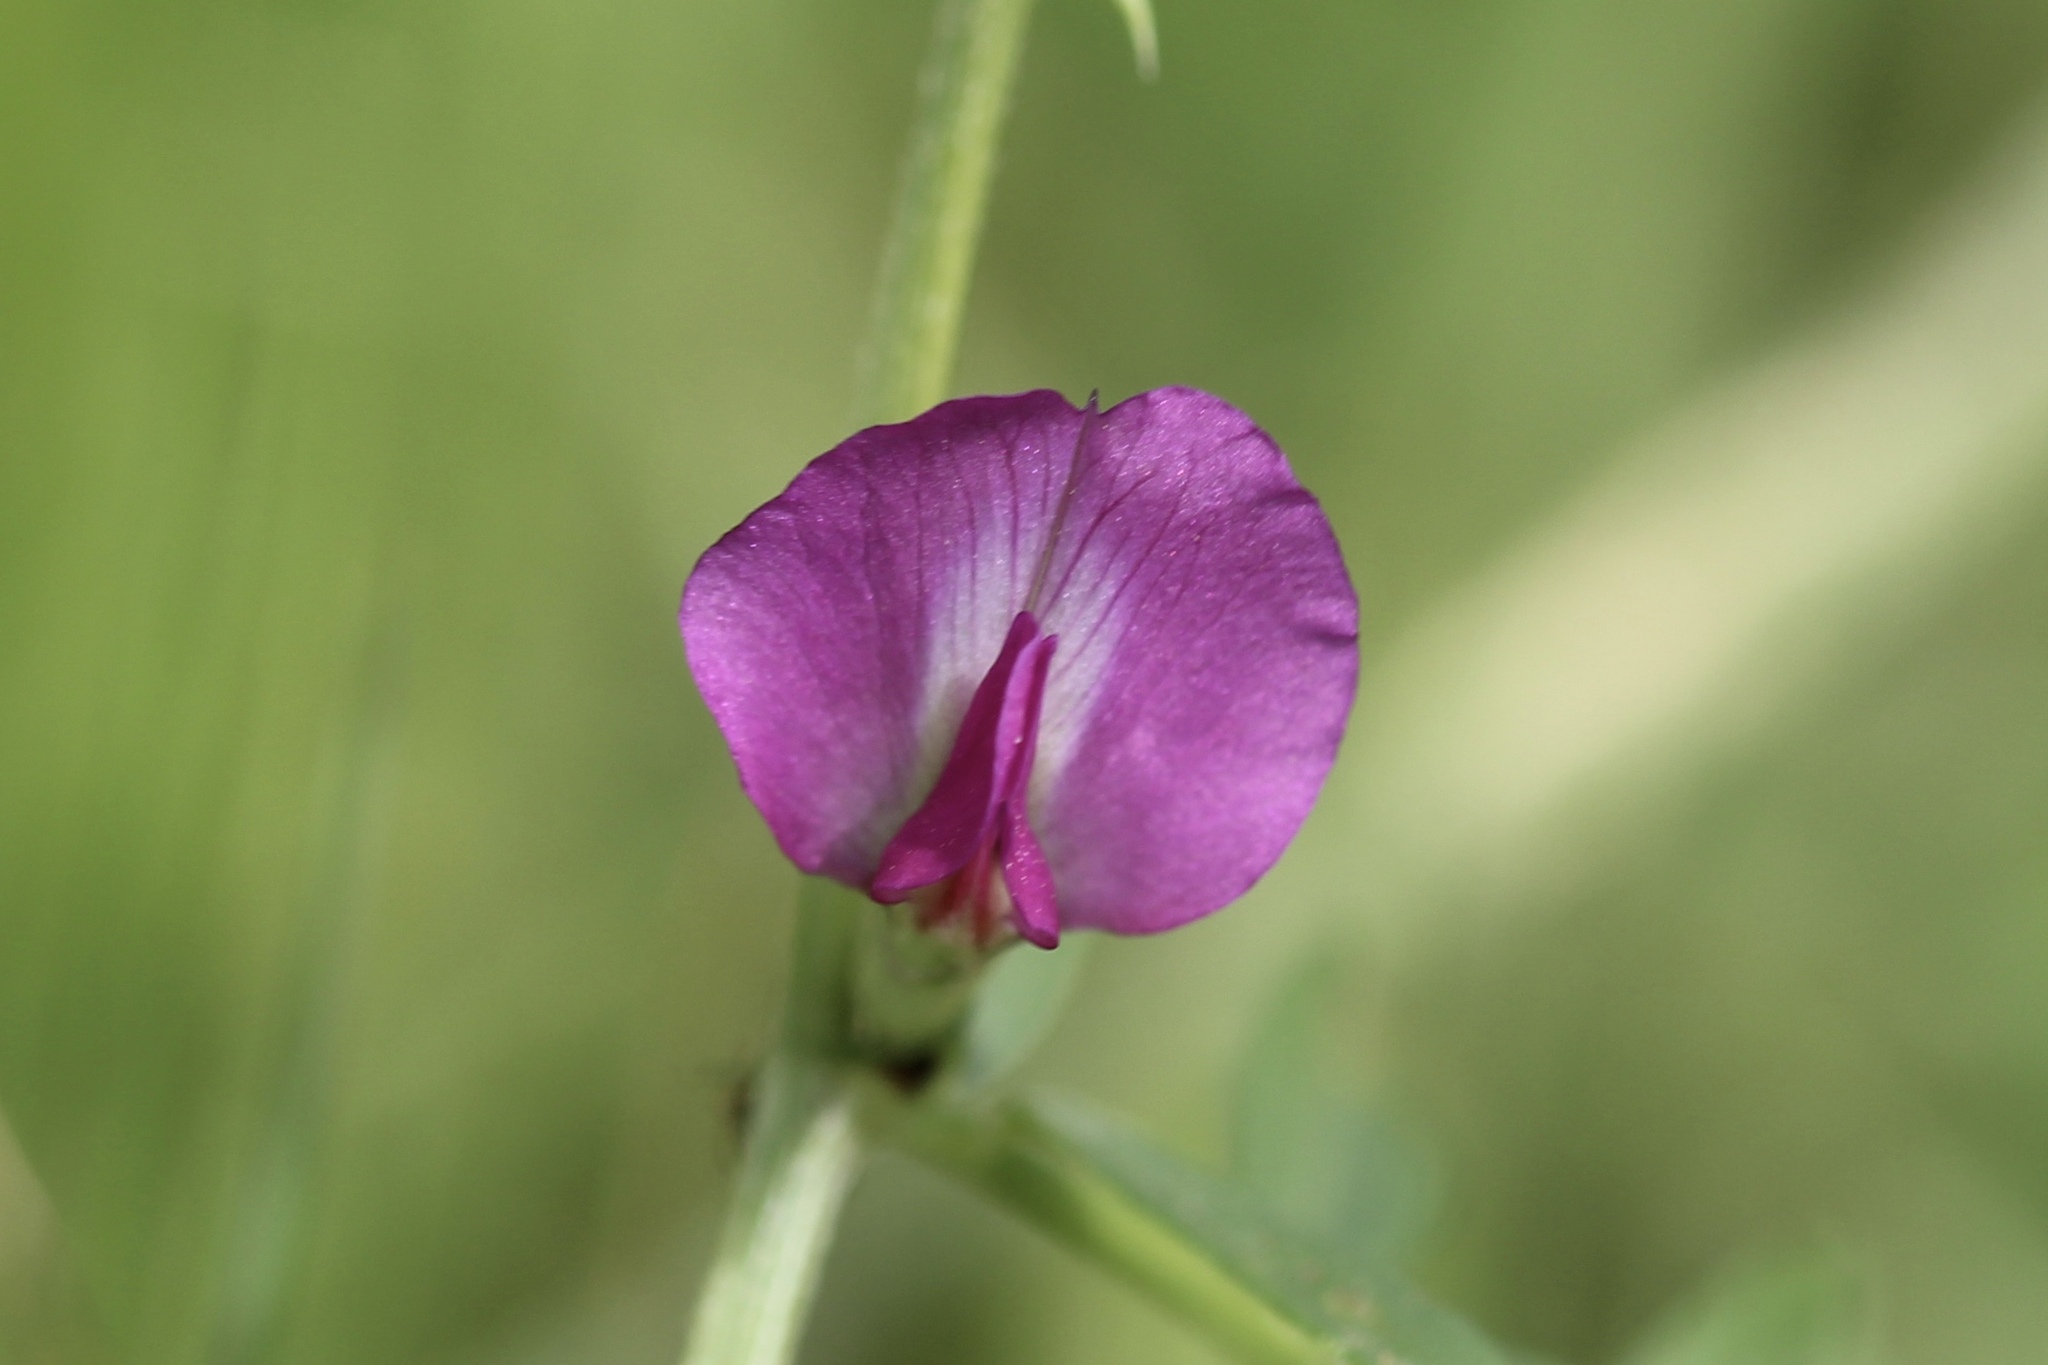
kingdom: Plantae
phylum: Tracheophyta
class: Magnoliopsida
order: Fabales
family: Fabaceae
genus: Vicia
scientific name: Vicia sativa
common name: Garden vetch
